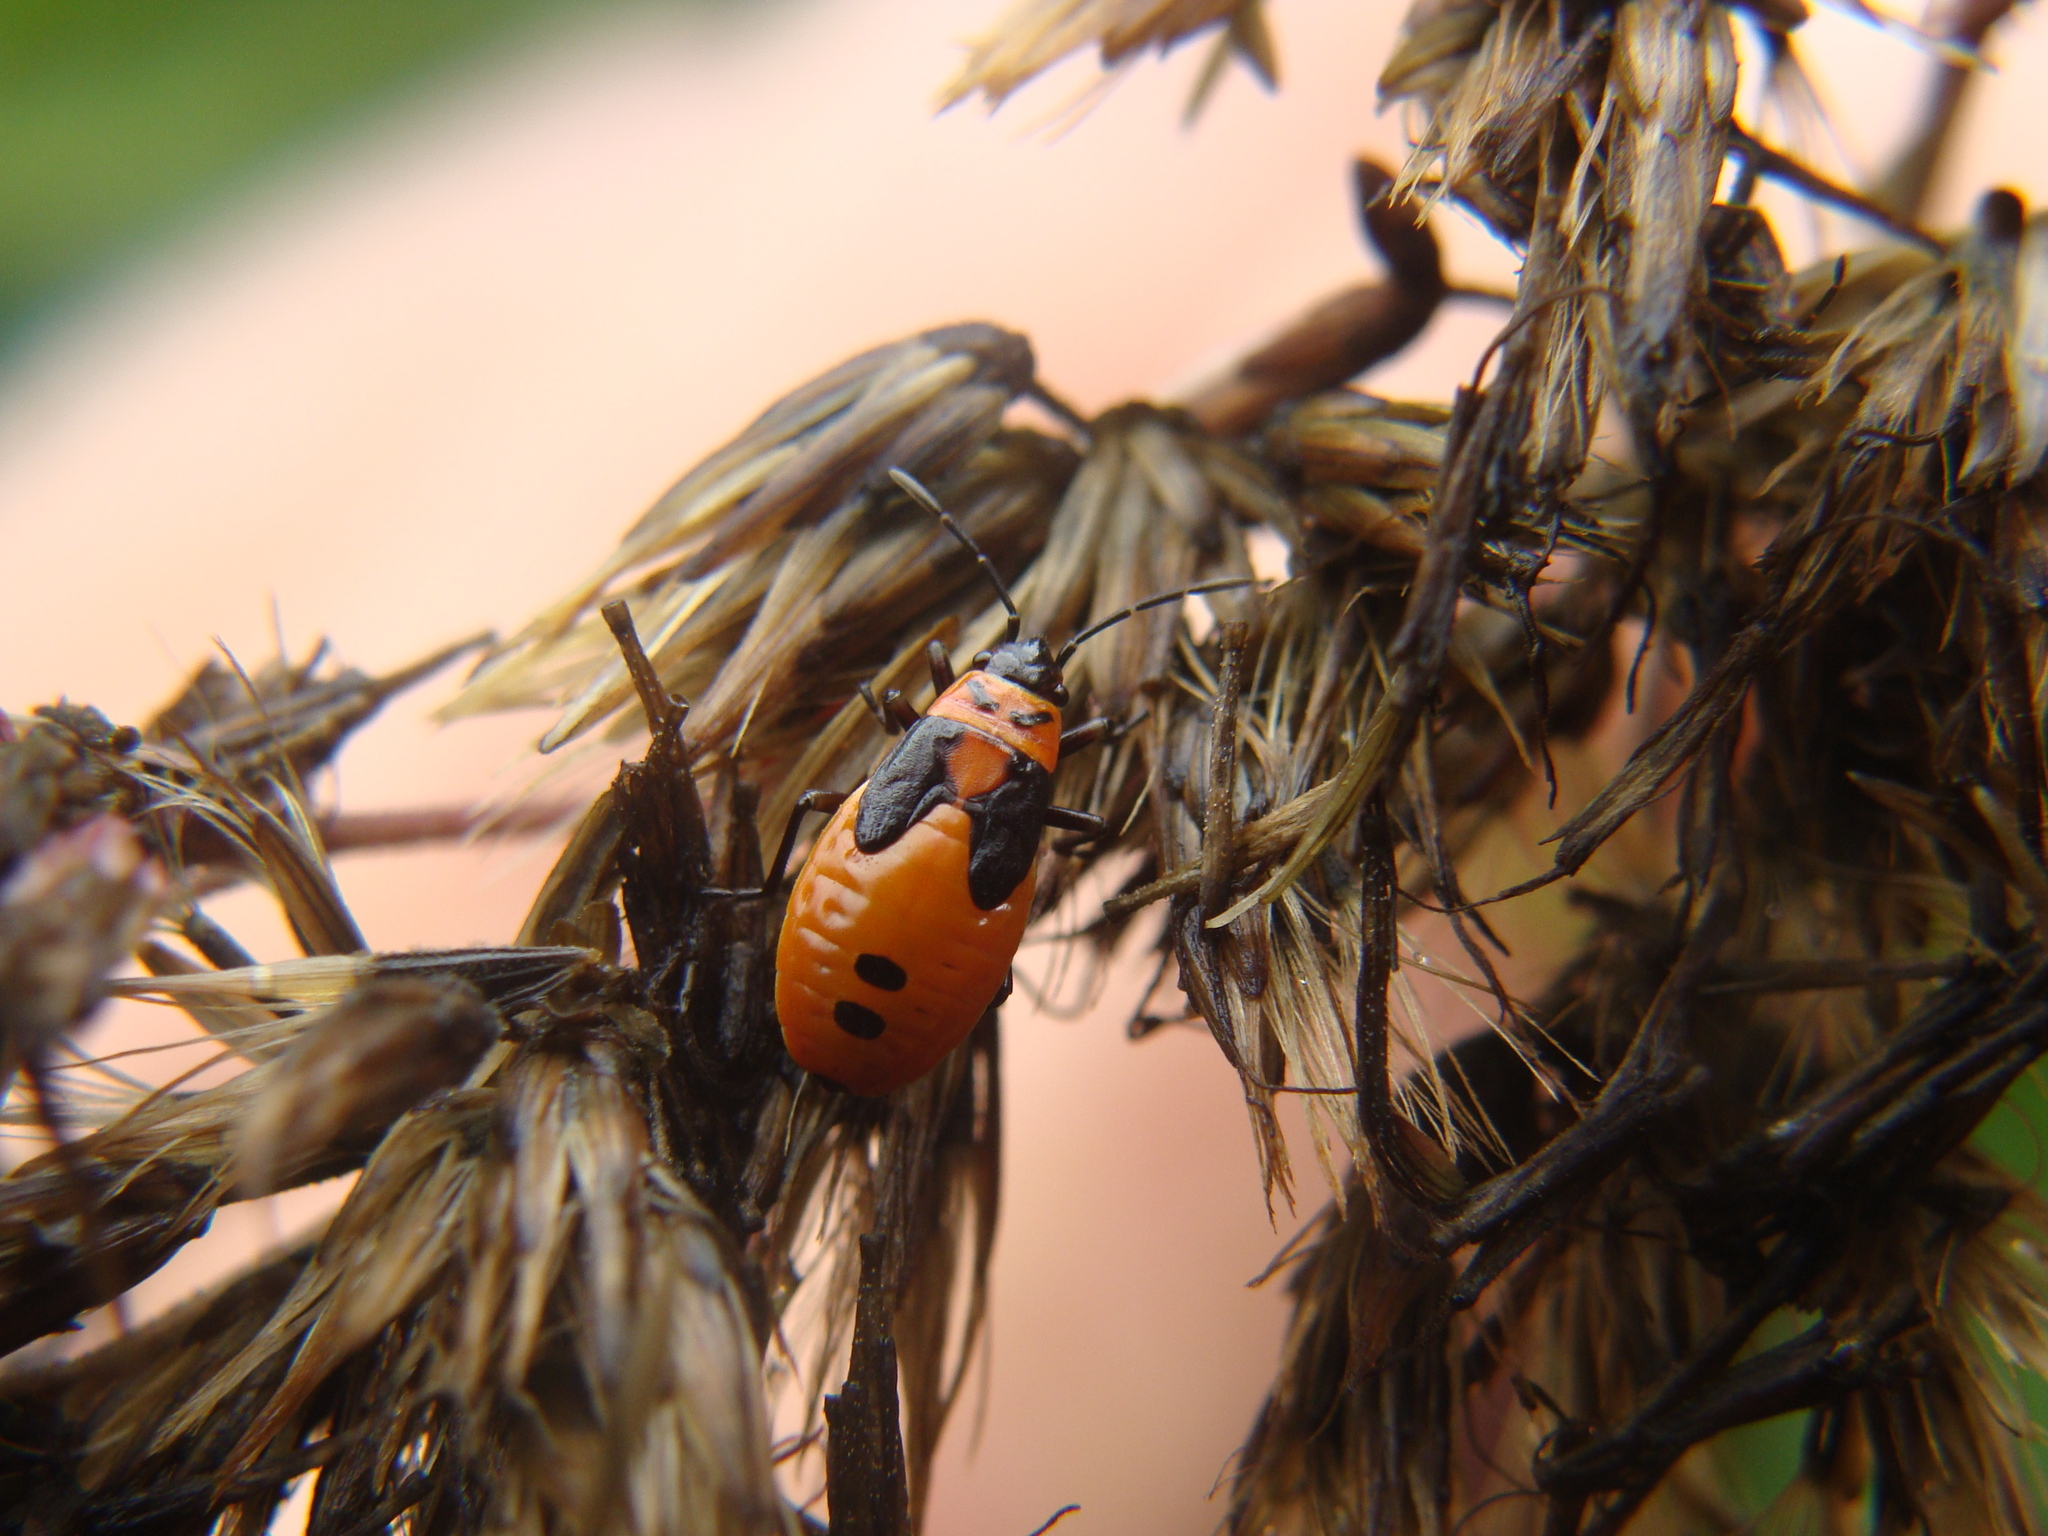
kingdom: Animalia
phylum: Arthropoda
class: Insecta
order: Hemiptera
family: Lygaeidae
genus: Lygaeus
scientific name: Lygaeus turcicus
